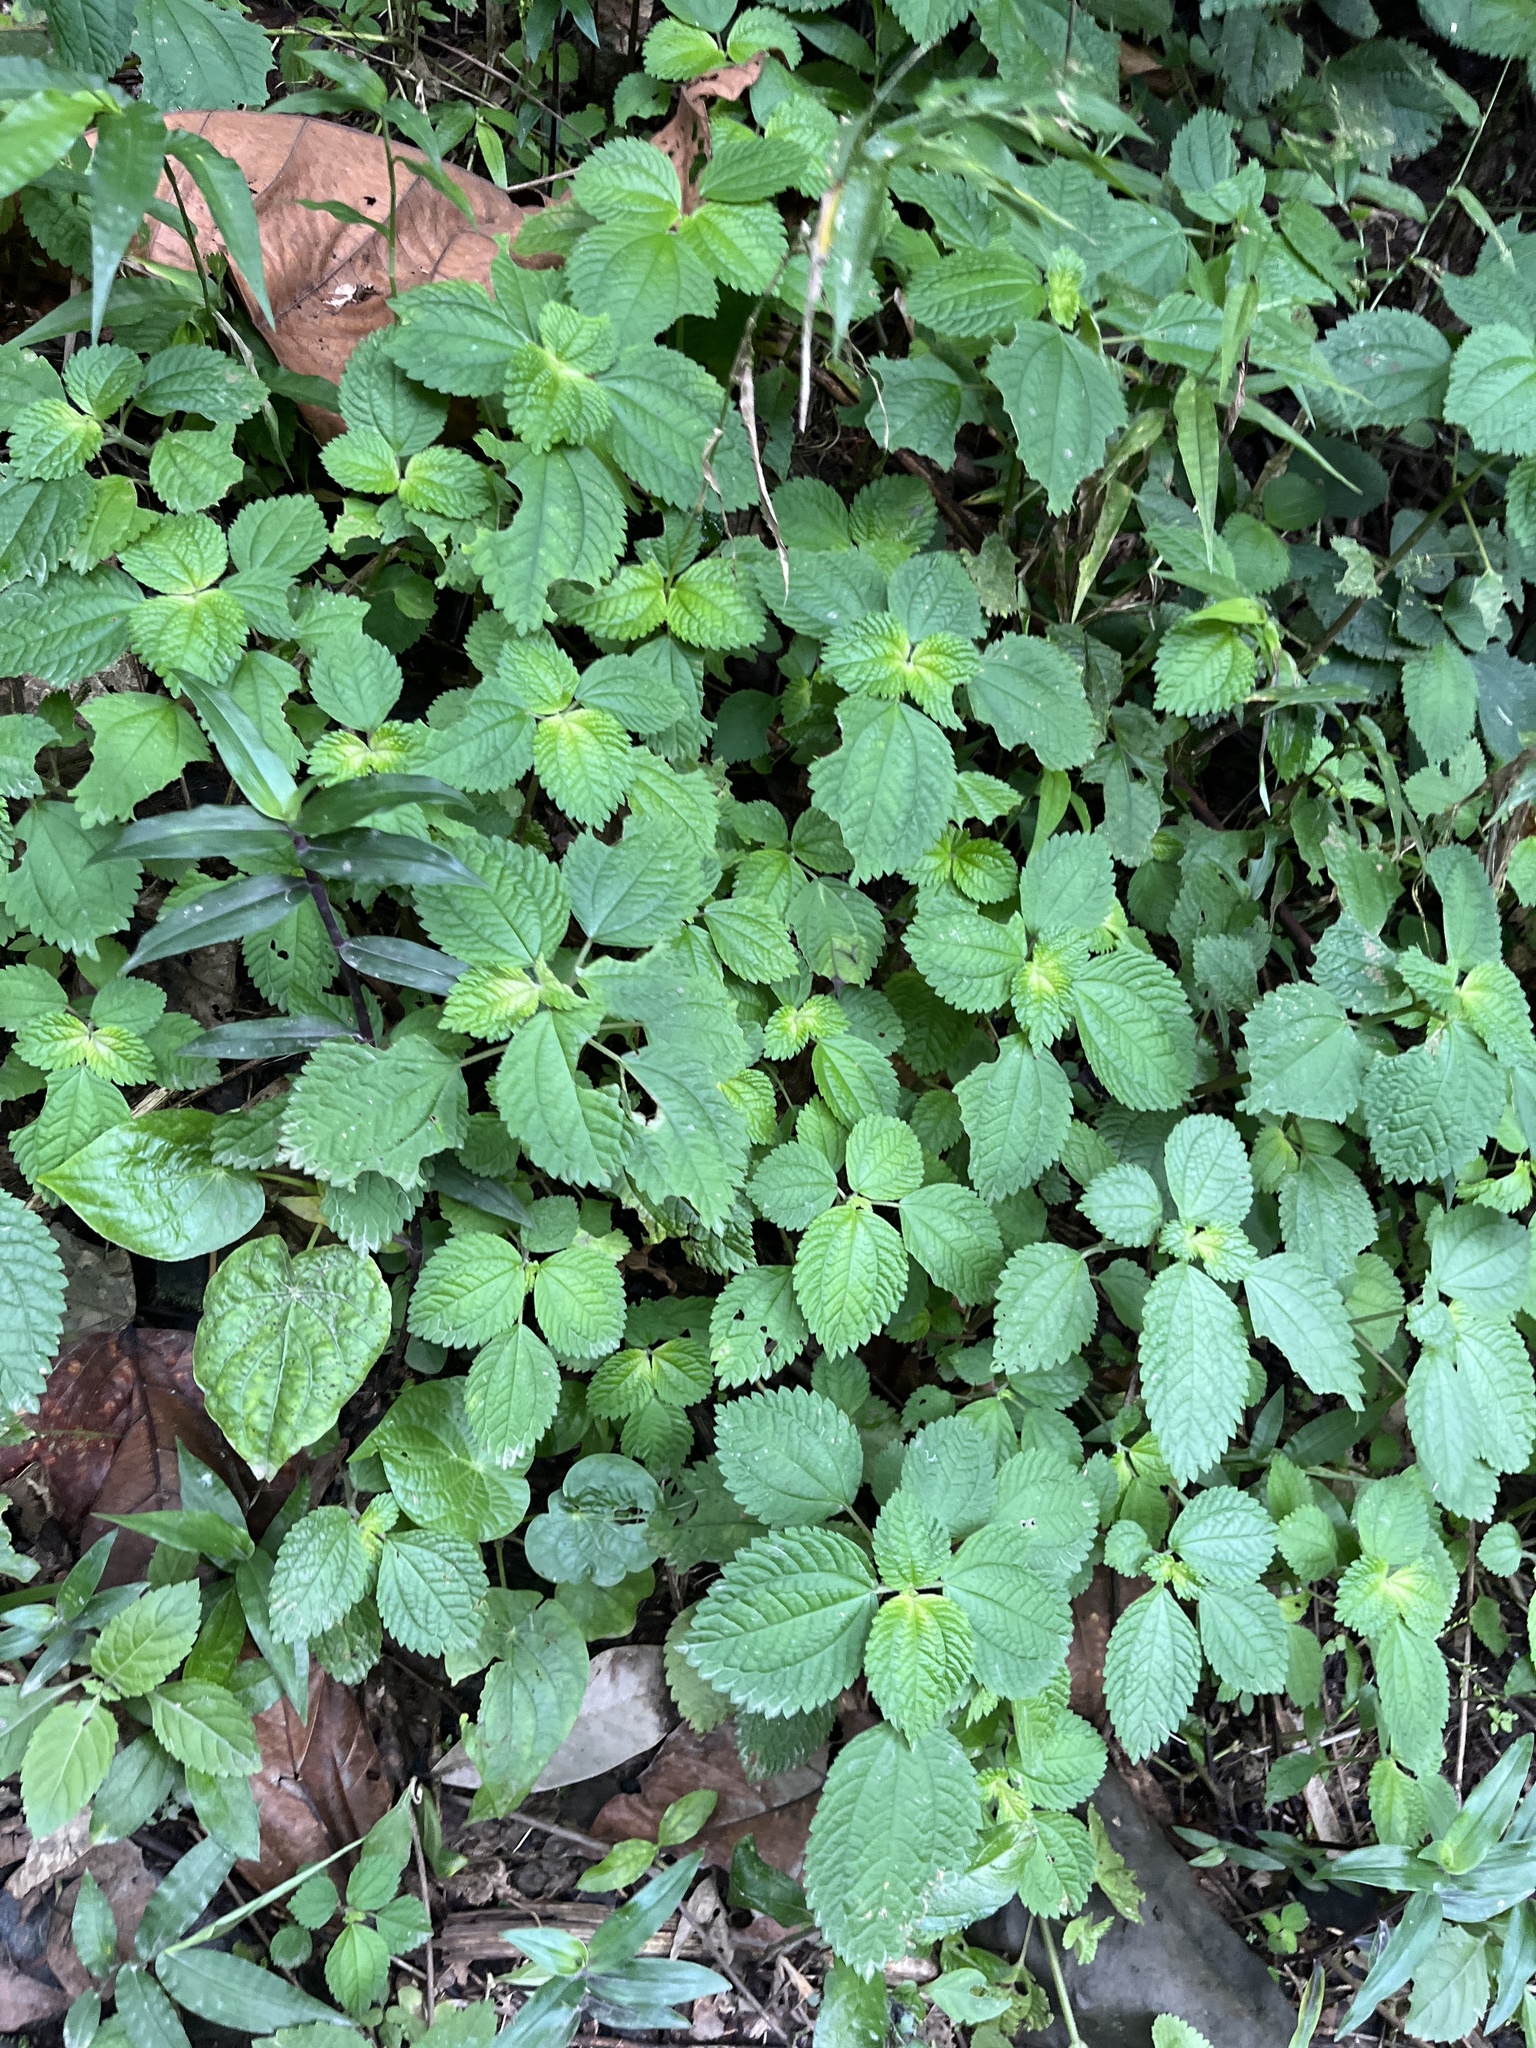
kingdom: Plantae
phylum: Tracheophyta
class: Magnoliopsida
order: Rosales
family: Urticaceae
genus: Pilea
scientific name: Pilea inaequalis
